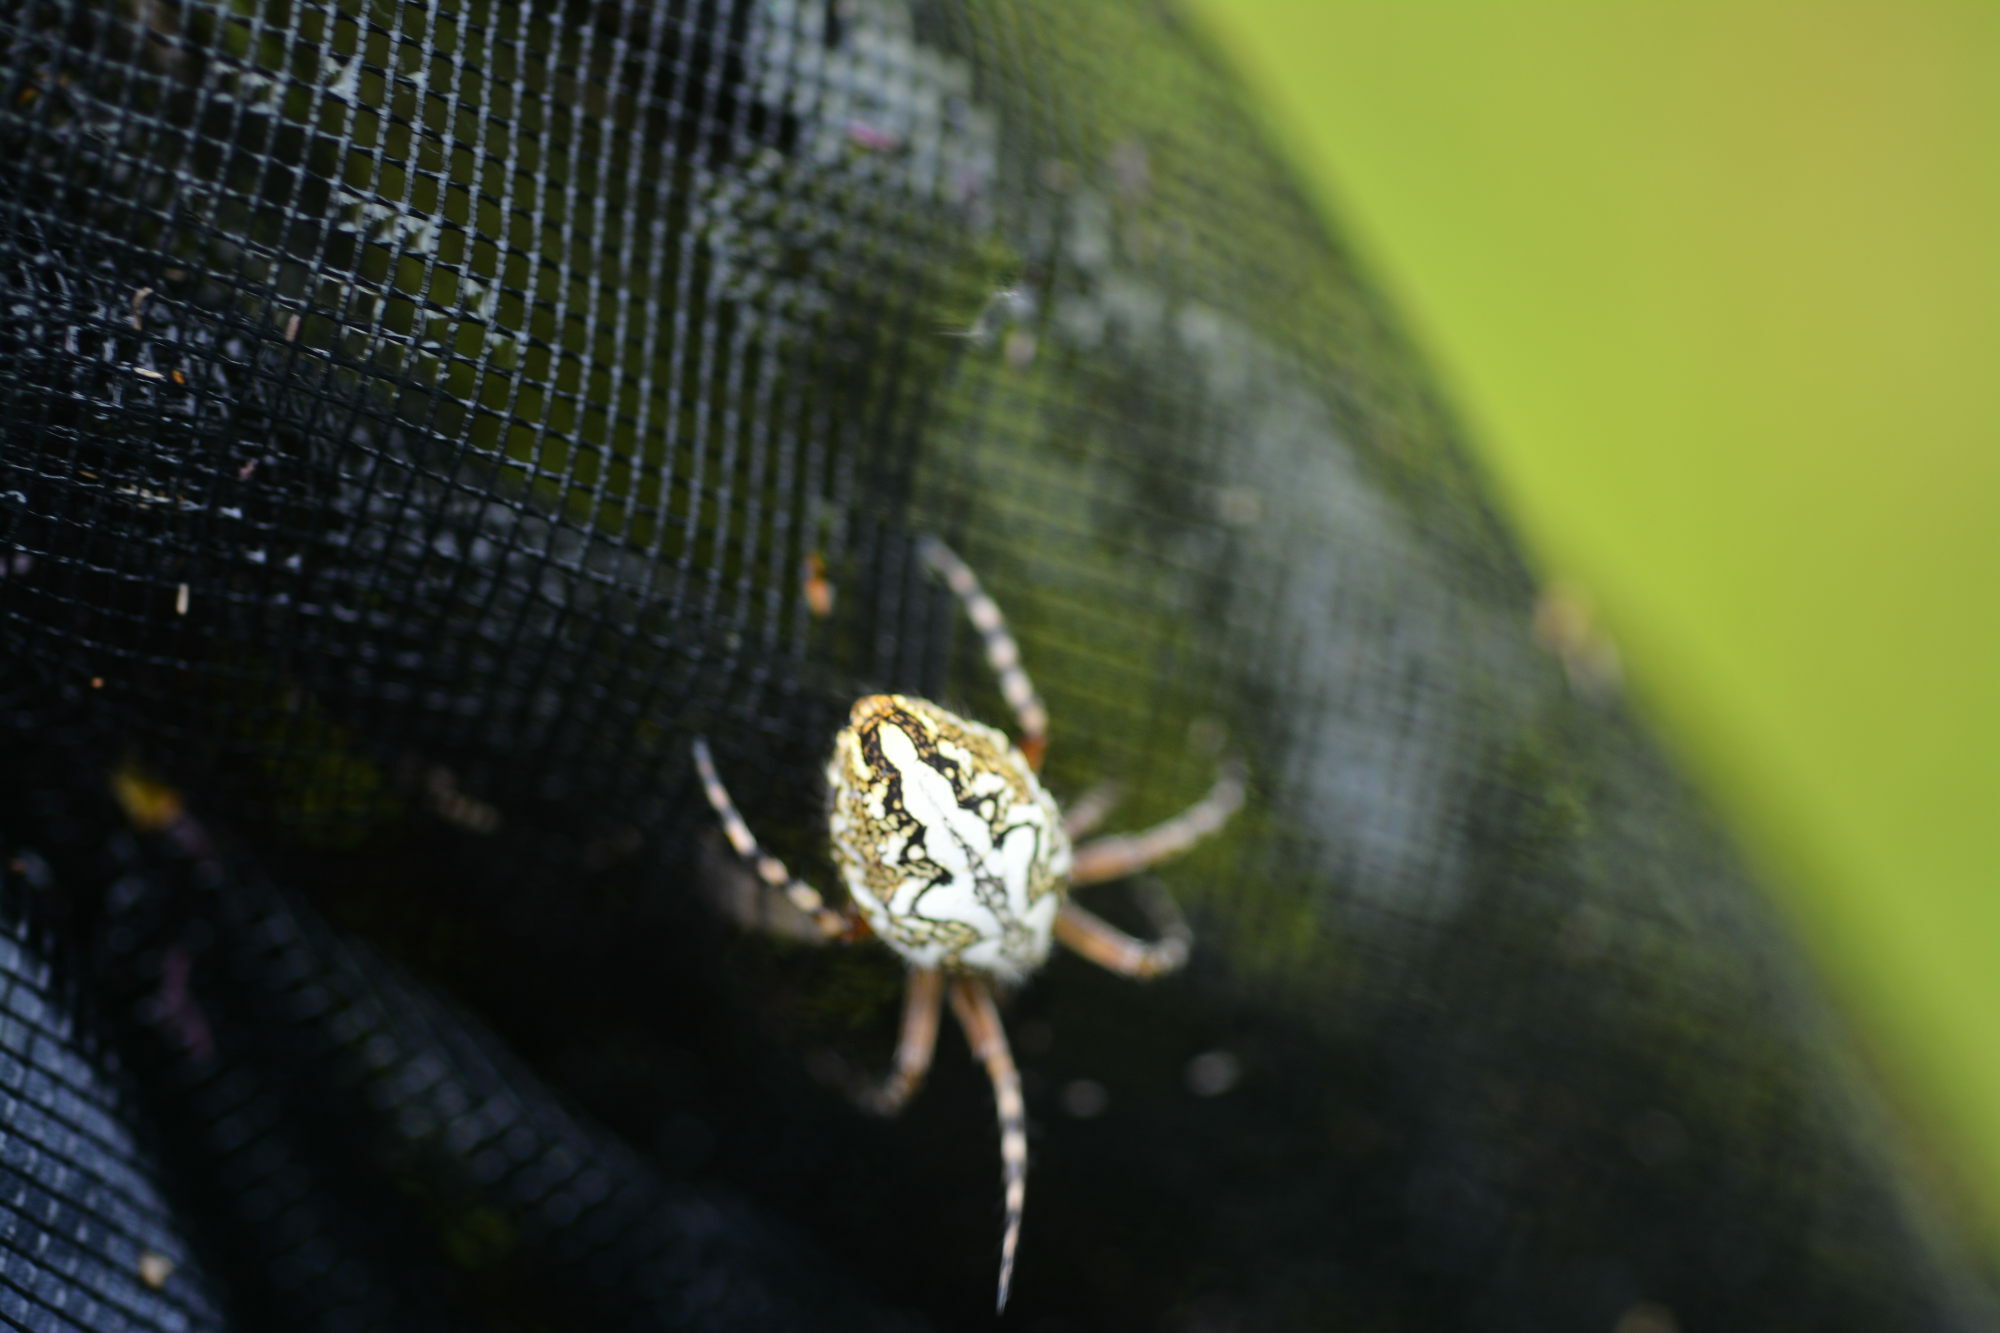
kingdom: Animalia
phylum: Arthropoda
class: Arachnida
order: Araneae
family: Araneidae
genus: Aculepeira
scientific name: Aculepeira ceropegia
